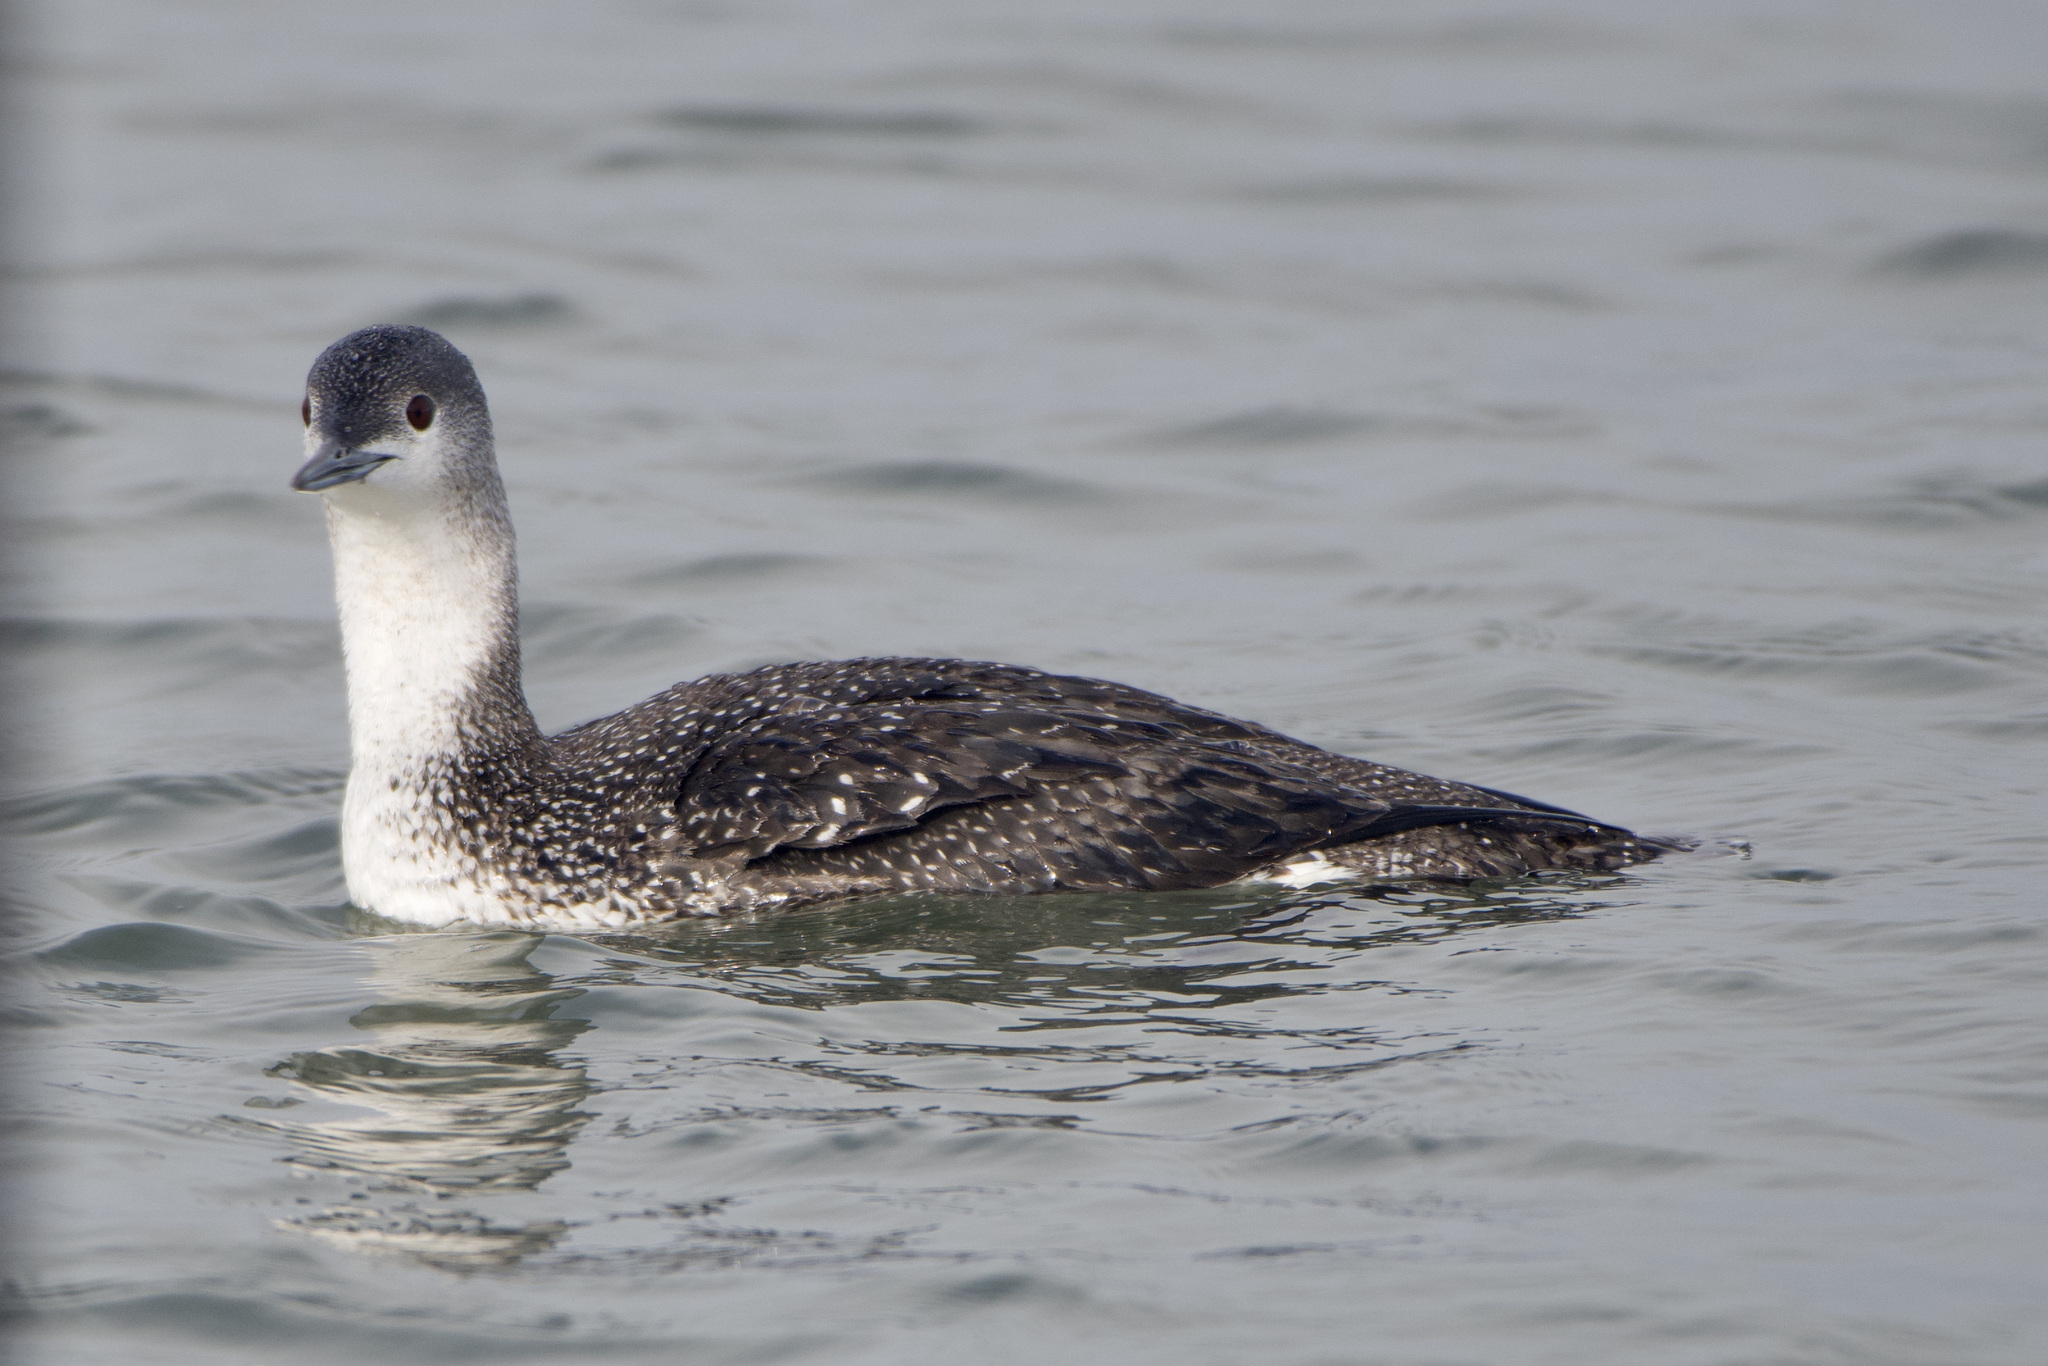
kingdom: Animalia
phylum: Chordata
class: Aves
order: Gaviiformes
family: Gaviidae
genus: Gavia
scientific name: Gavia stellata
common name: Red-throated loon
